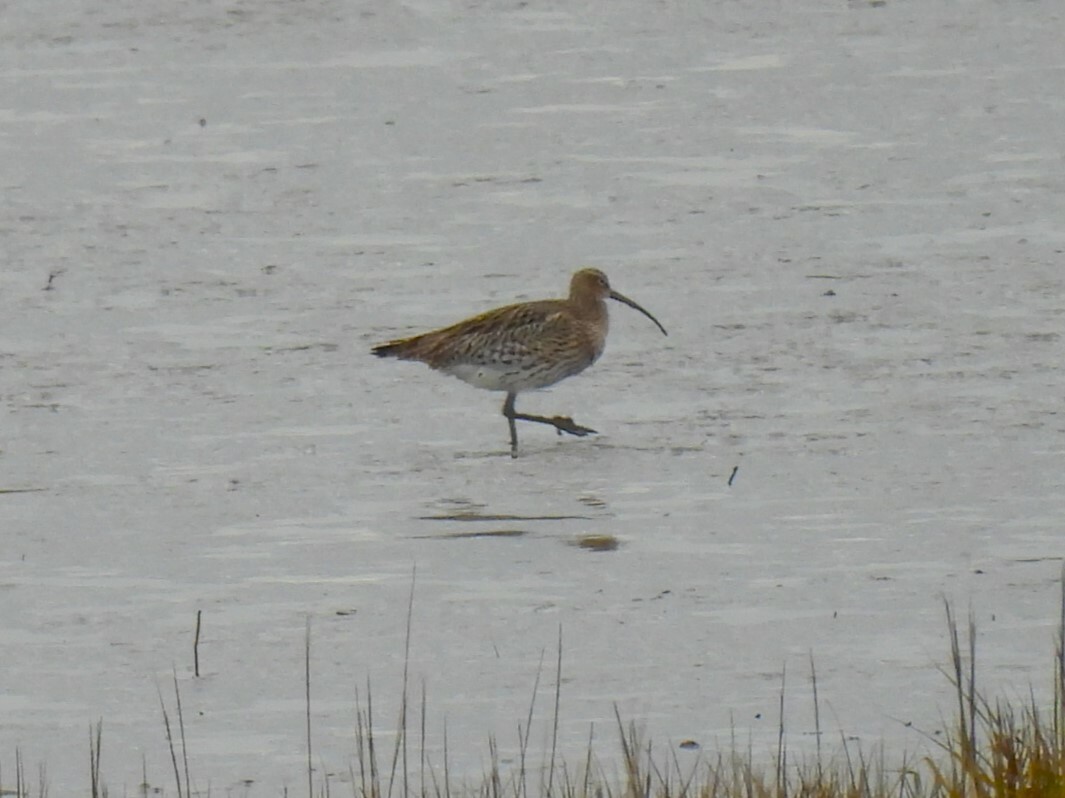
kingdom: Animalia
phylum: Chordata
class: Aves
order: Charadriiformes
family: Scolopacidae
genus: Numenius
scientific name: Numenius arquata
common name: Eurasian curlew
